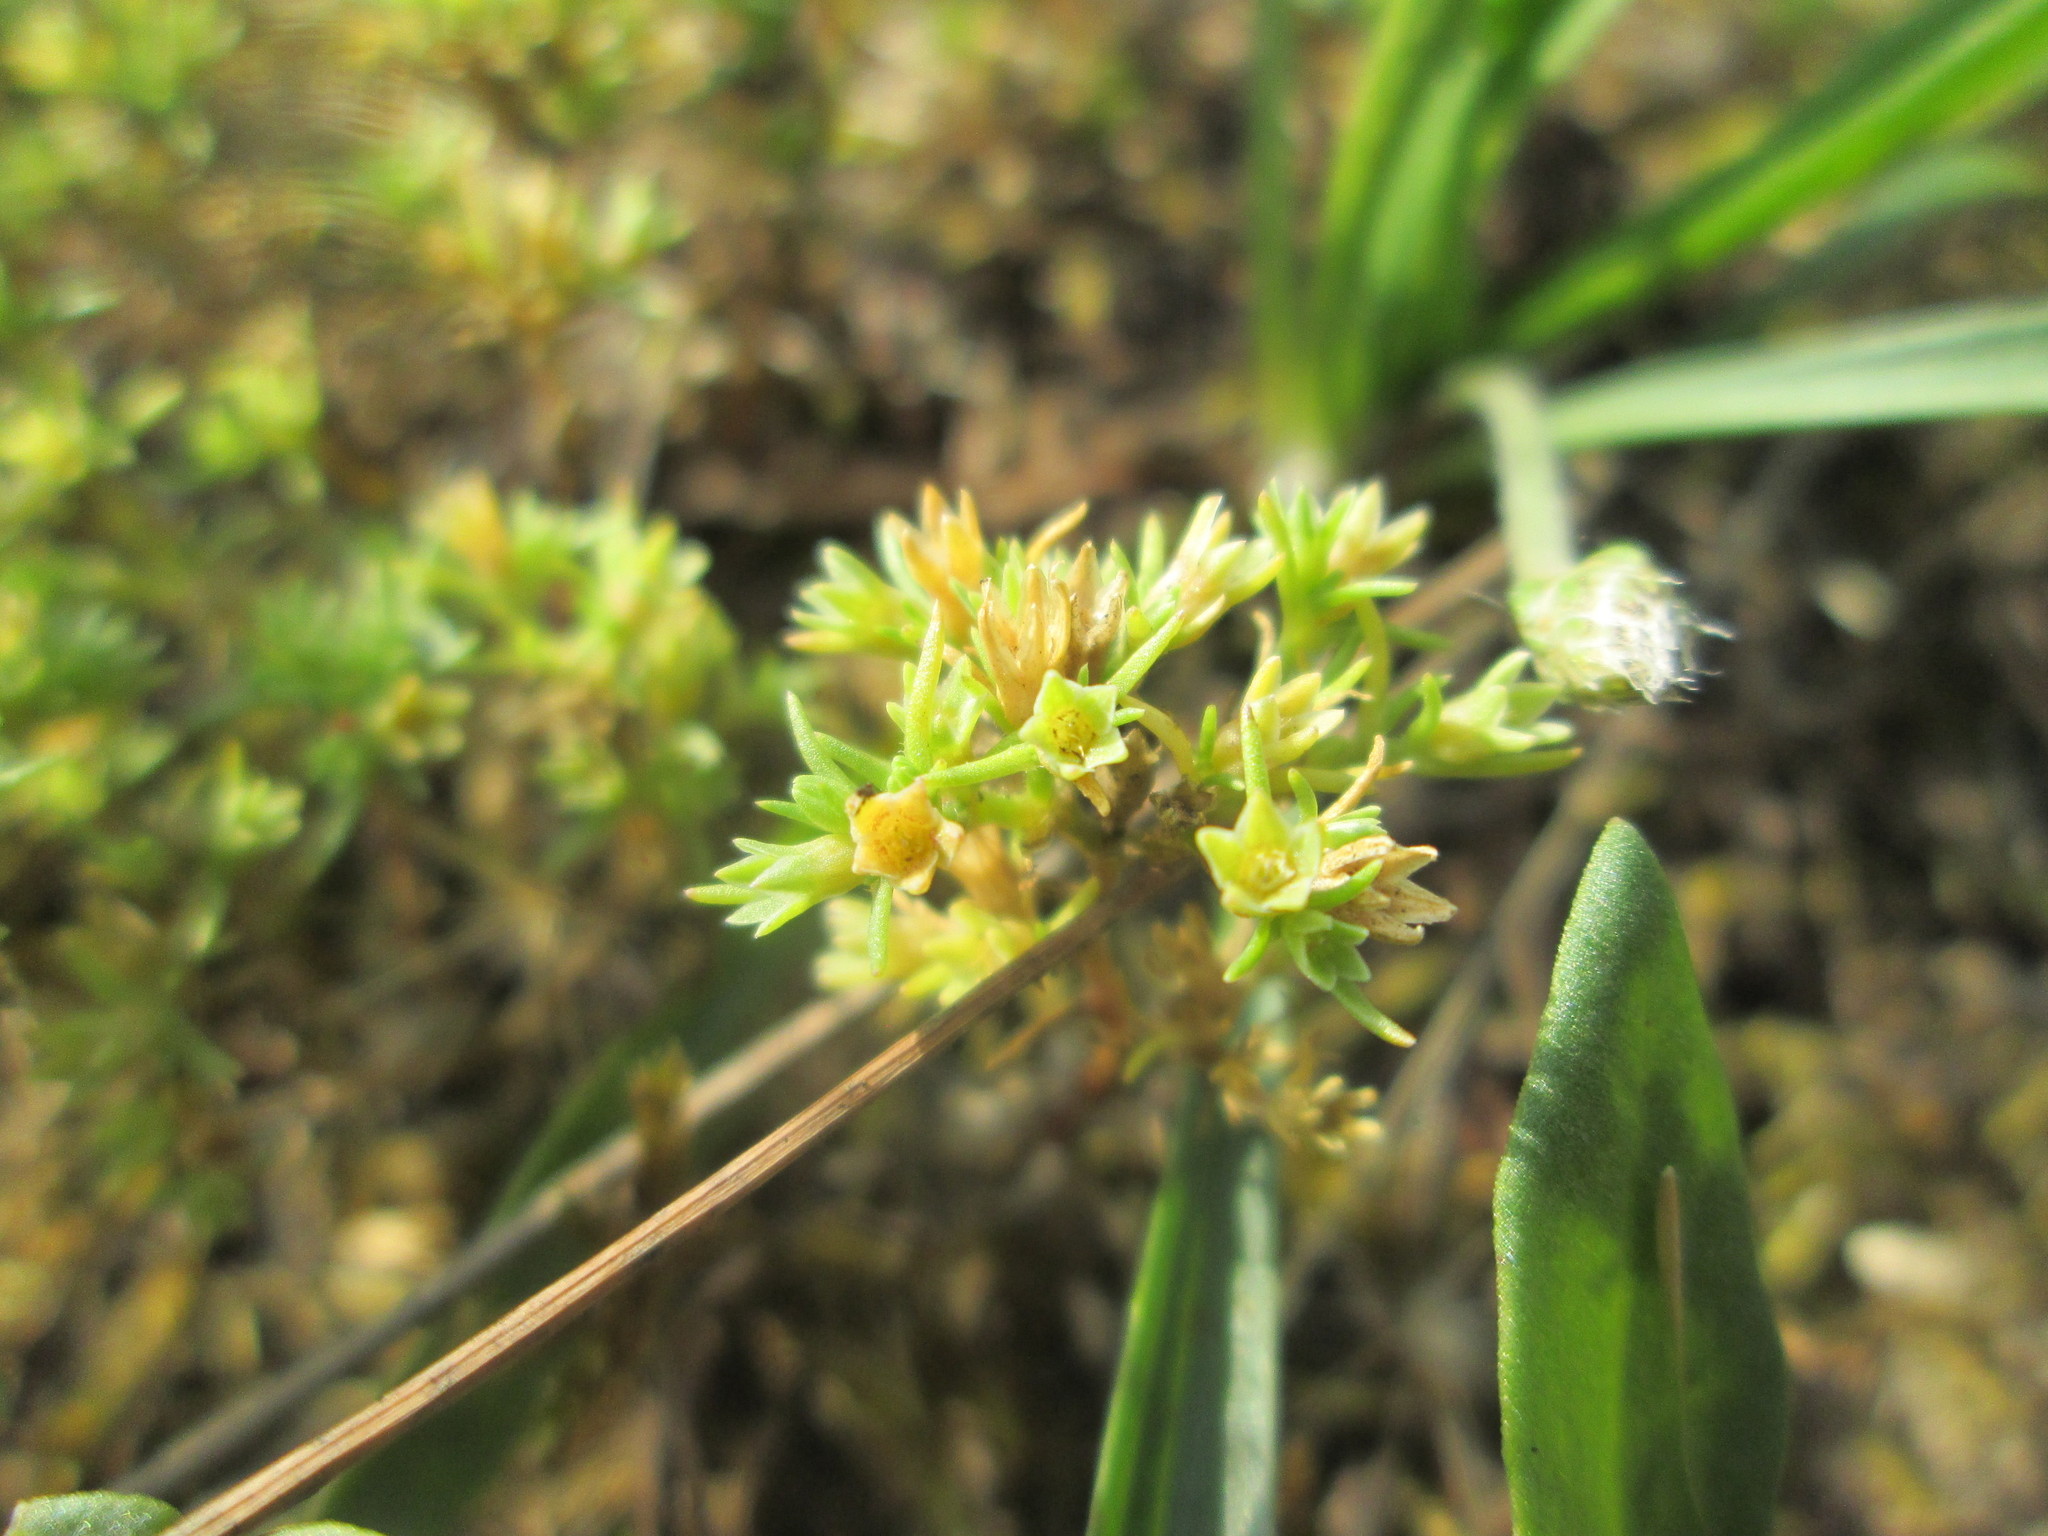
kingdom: Plantae
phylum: Tracheophyta
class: Magnoliopsida
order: Caryophyllales
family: Caryophyllaceae
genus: Scleranthus
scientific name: Scleranthus annuus
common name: Annual knawel
